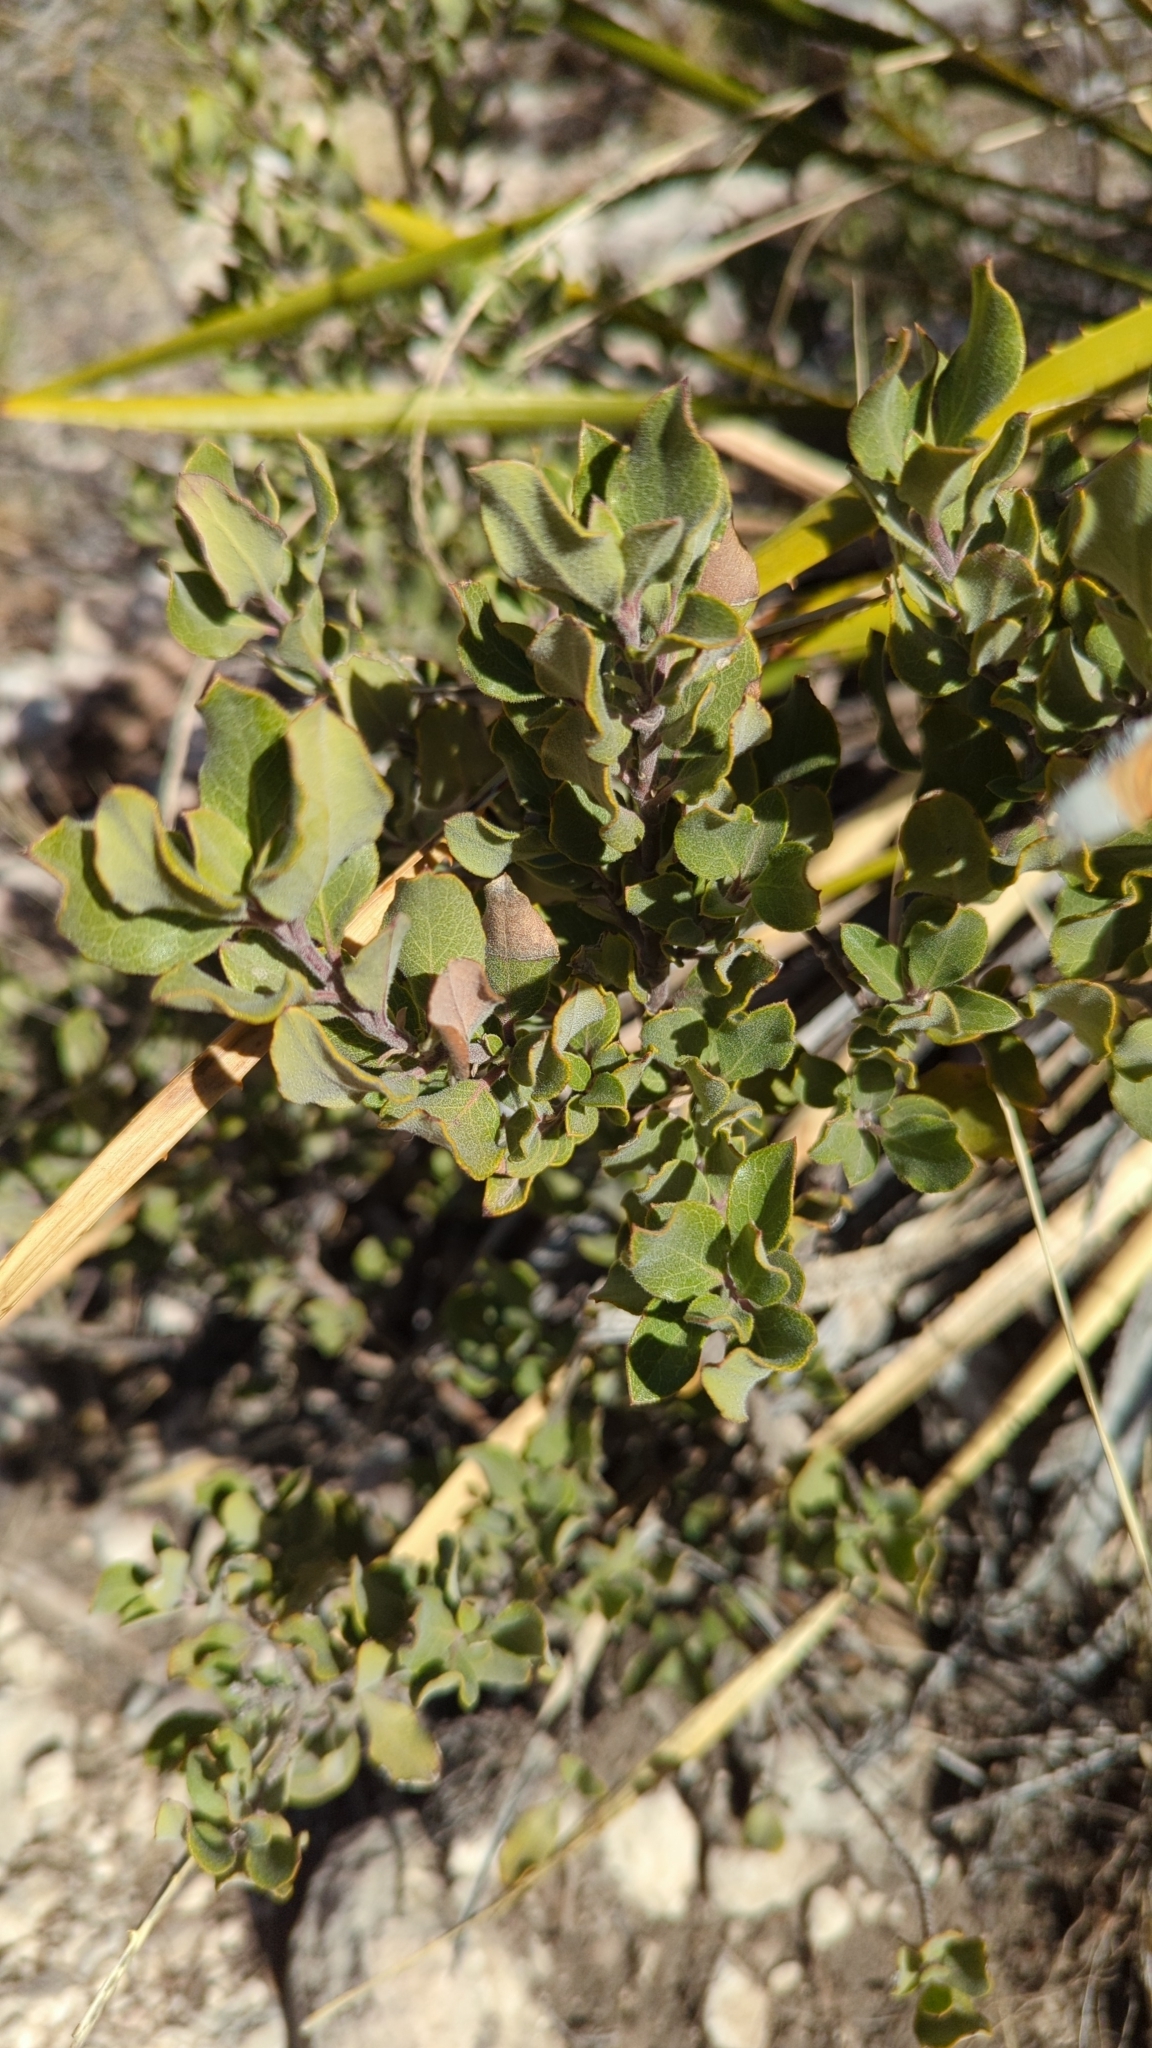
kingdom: Plantae
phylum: Tracheophyta
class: Magnoliopsida
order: Garryales
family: Garryaceae
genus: Garrya
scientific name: Garrya goldmanii
